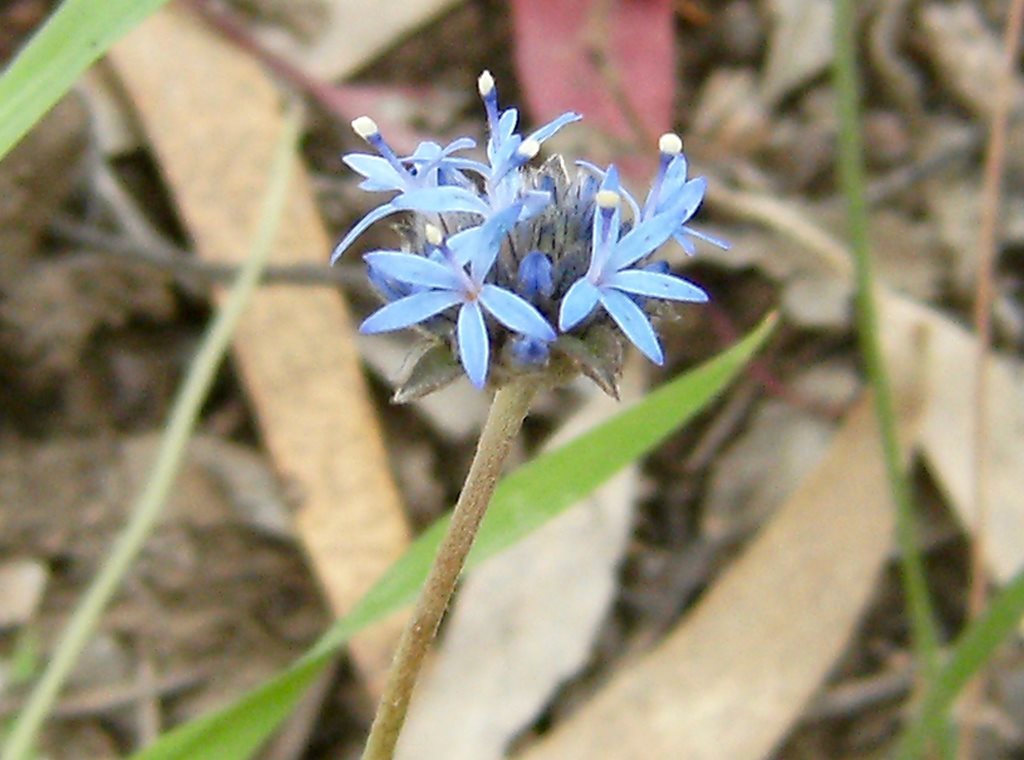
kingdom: Plantae
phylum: Tracheophyta
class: Magnoliopsida
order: Asterales
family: Goodeniaceae
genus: Brunonia
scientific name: Brunonia australis
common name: Blue pincushion
